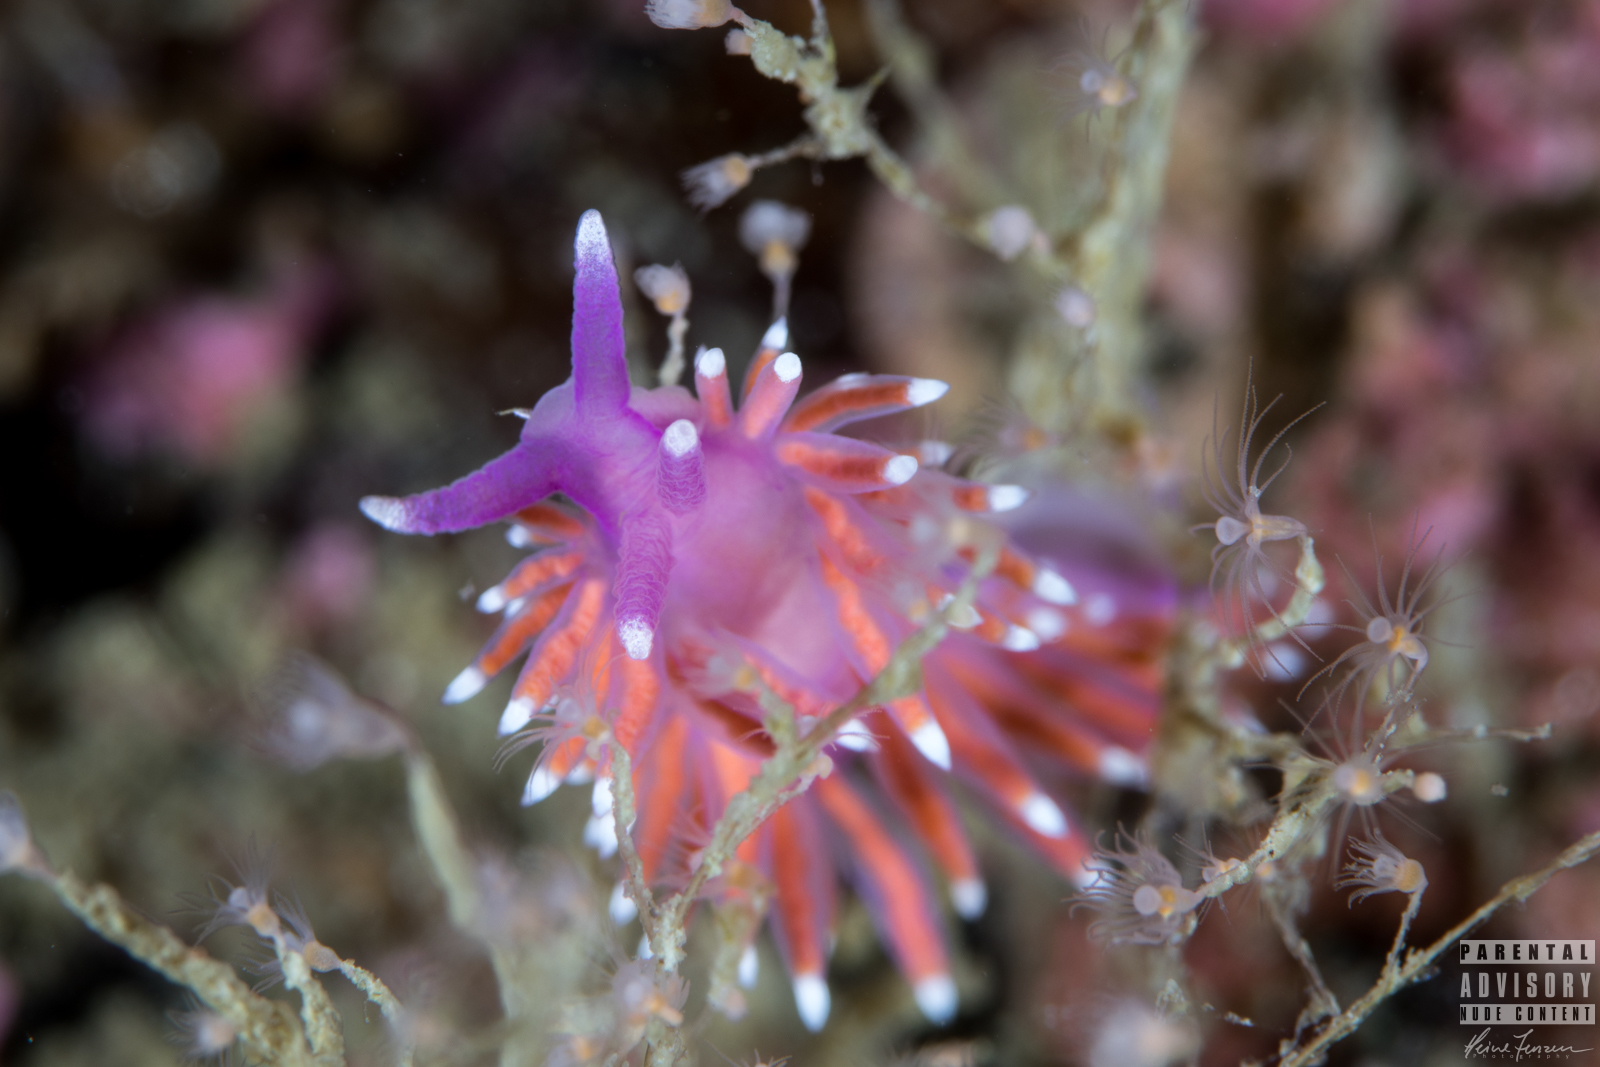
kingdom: Animalia
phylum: Mollusca
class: Gastropoda
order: Nudibranchia
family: Flabellinidae
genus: Edmundsella
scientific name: Edmundsella pedata
